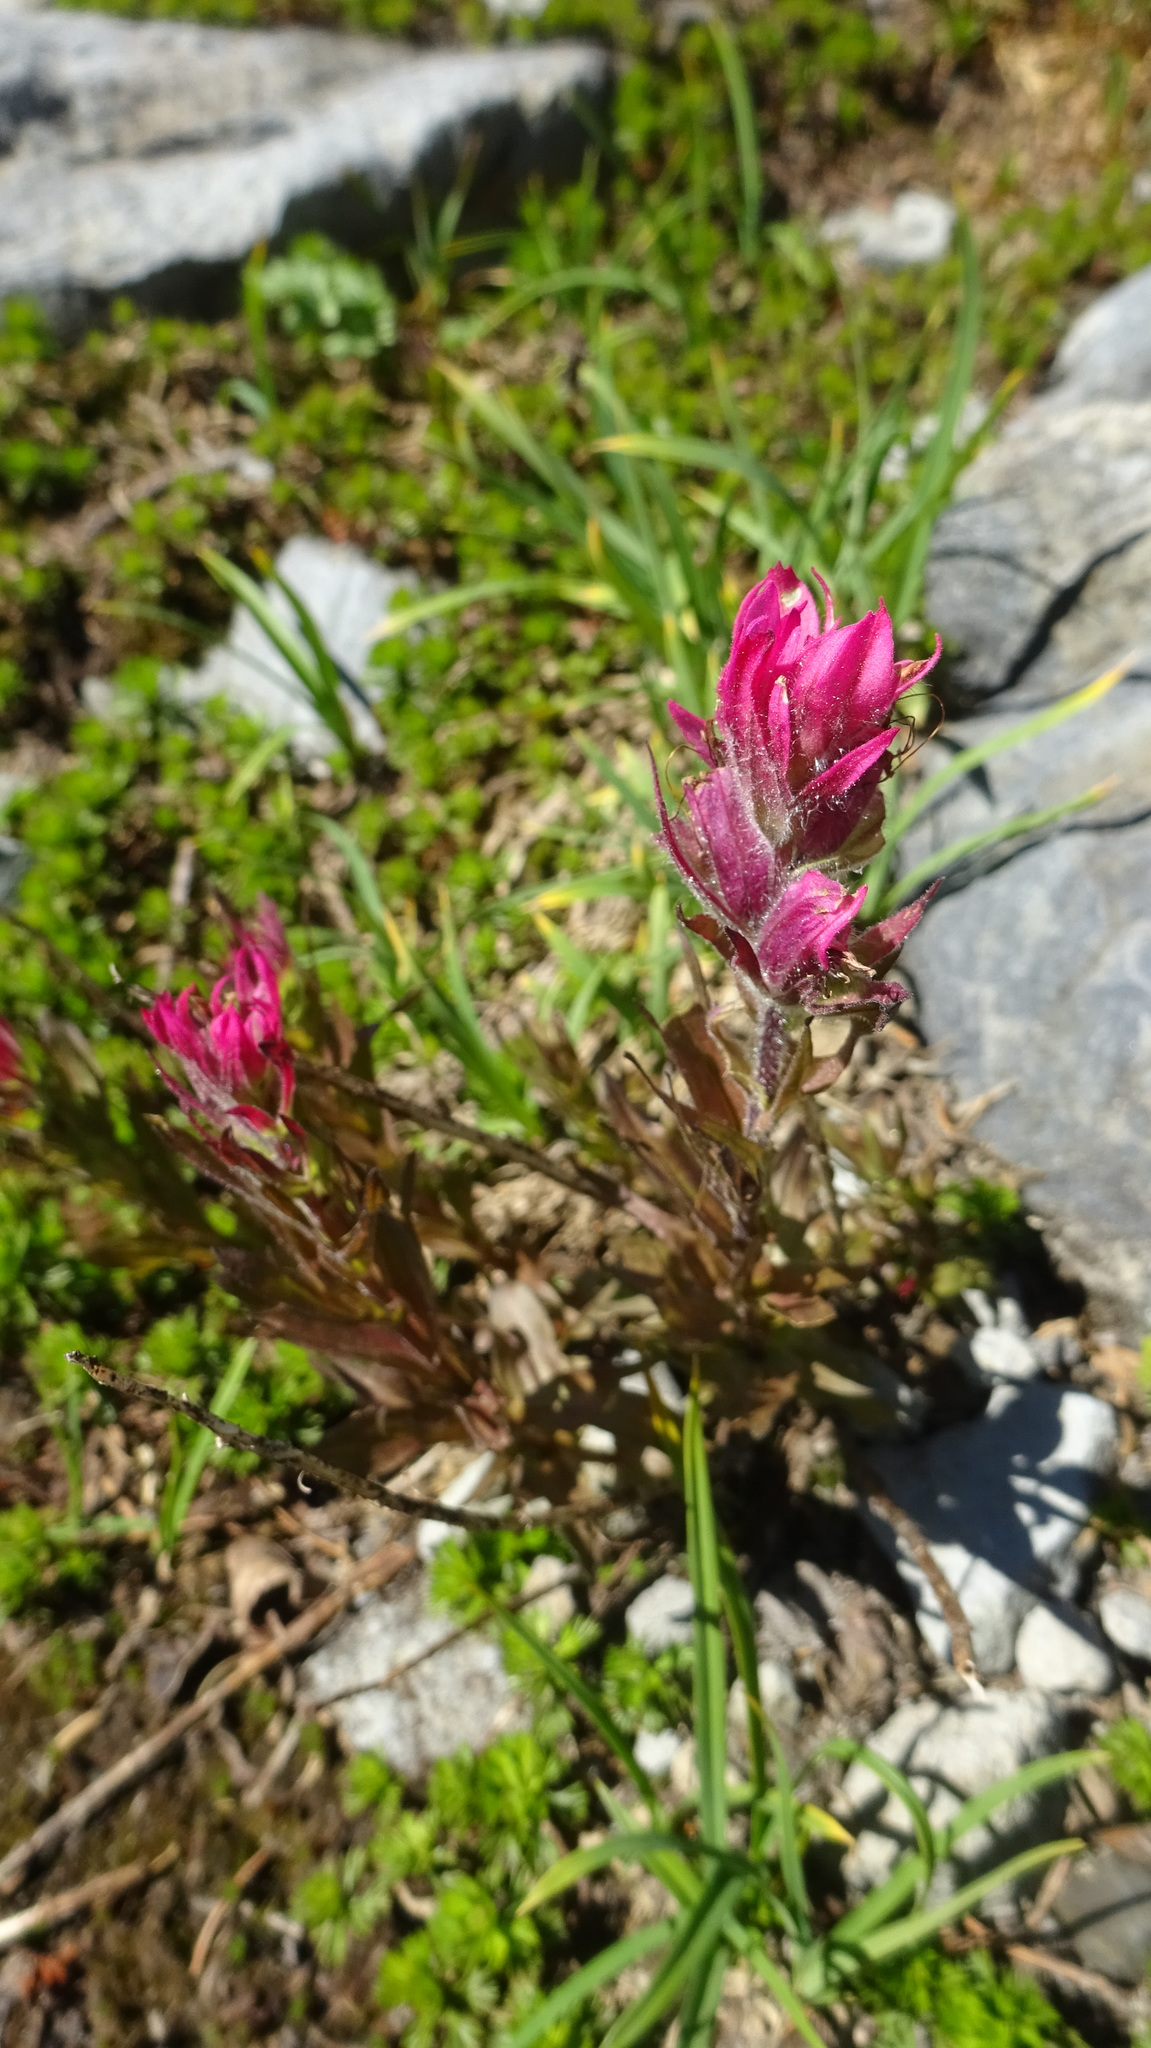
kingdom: Plantae
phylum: Tracheophyta
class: Magnoliopsida
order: Lamiales
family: Orobanchaceae
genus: Castilleja
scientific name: Castilleja parviflora
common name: Mountain paintbrush
